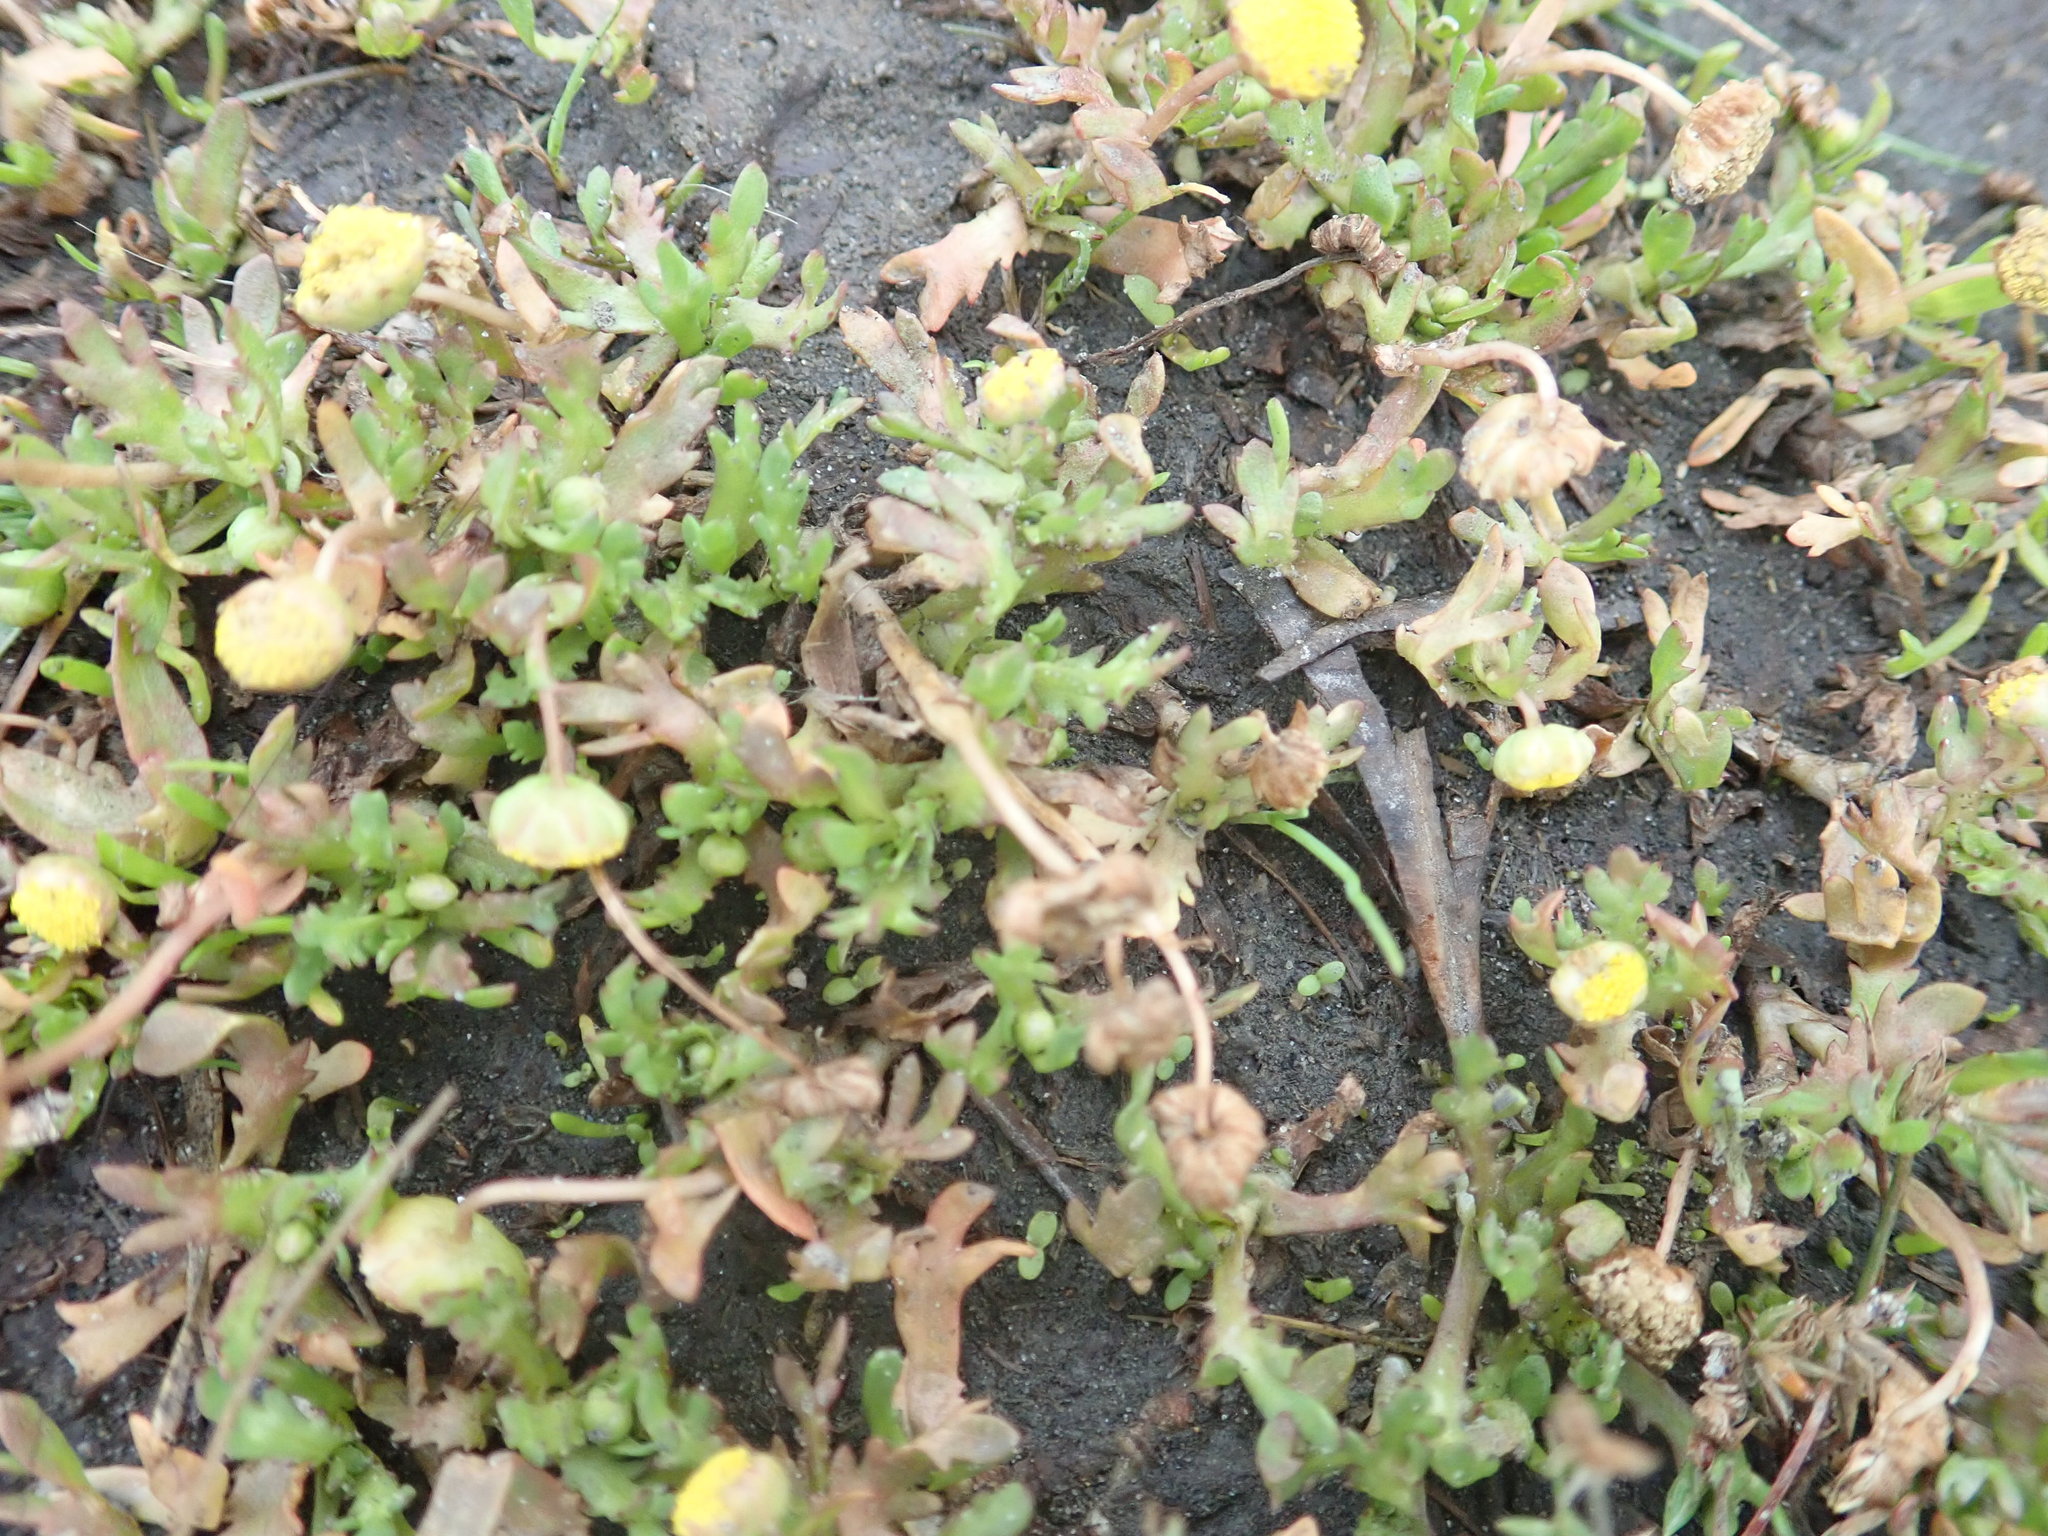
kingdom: Plantae
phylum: Tracheophyta
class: Magnoliopsida
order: Asterales
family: Asteraceae
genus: Cotula
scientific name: Cotula coronopifolia
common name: Buttonweed
